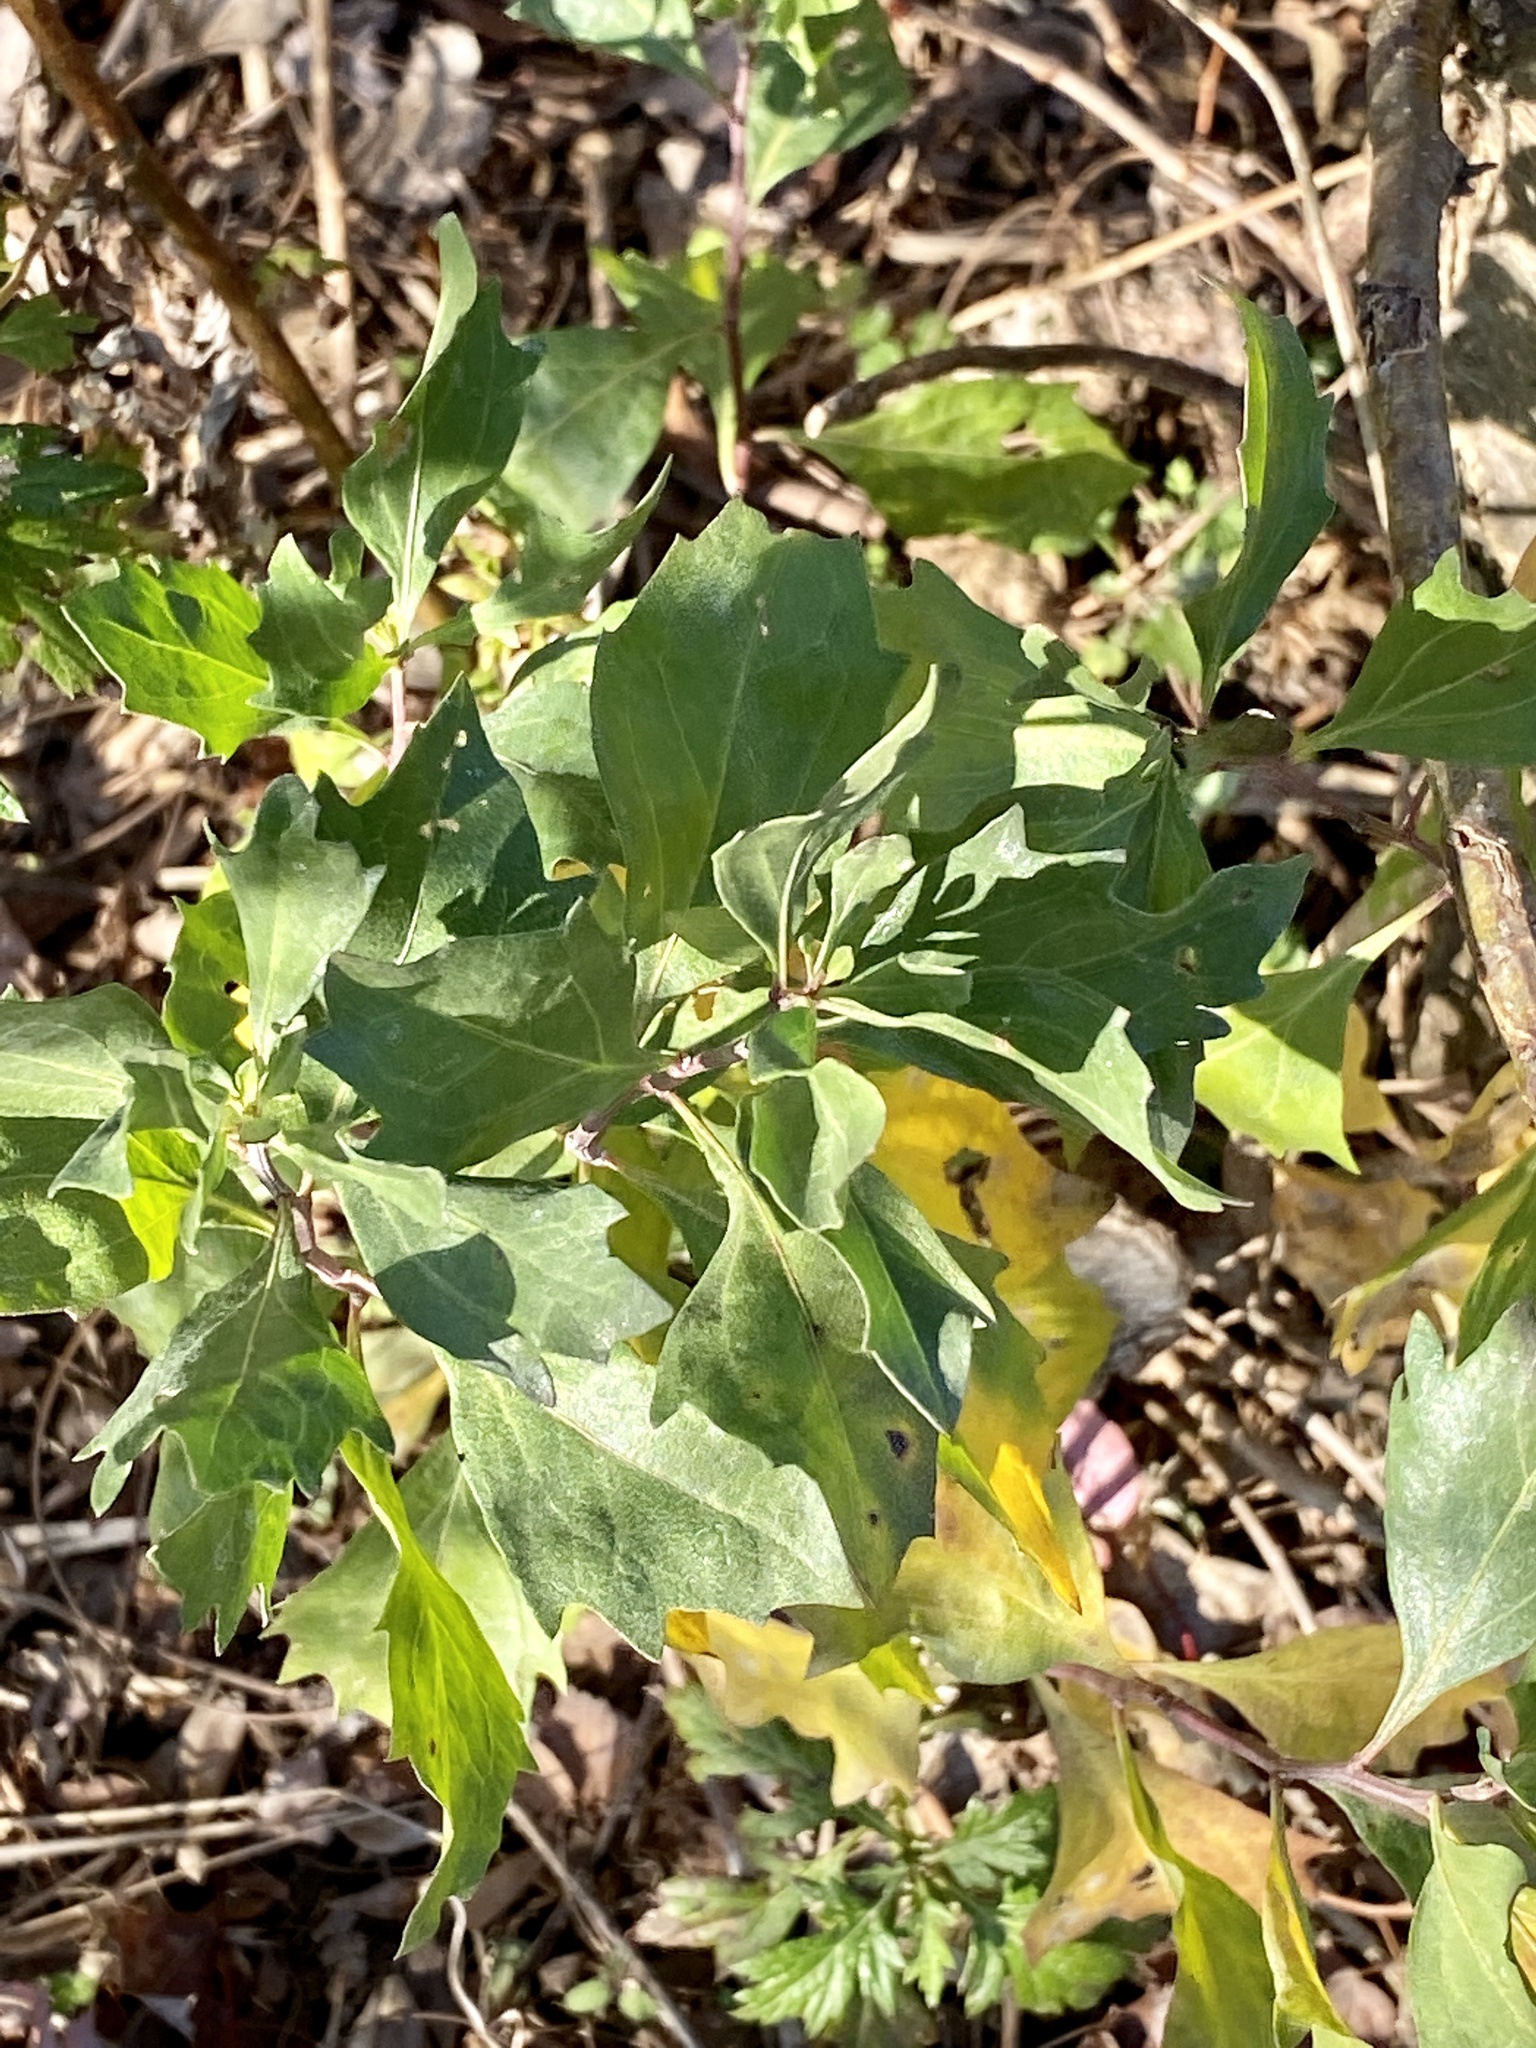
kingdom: Plantae
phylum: Tracheophyta
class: Magnoliopsida
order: Asterales
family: Asteraceae
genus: Baccharis
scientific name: Baccharis halimifolia
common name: Eastern baccharis
